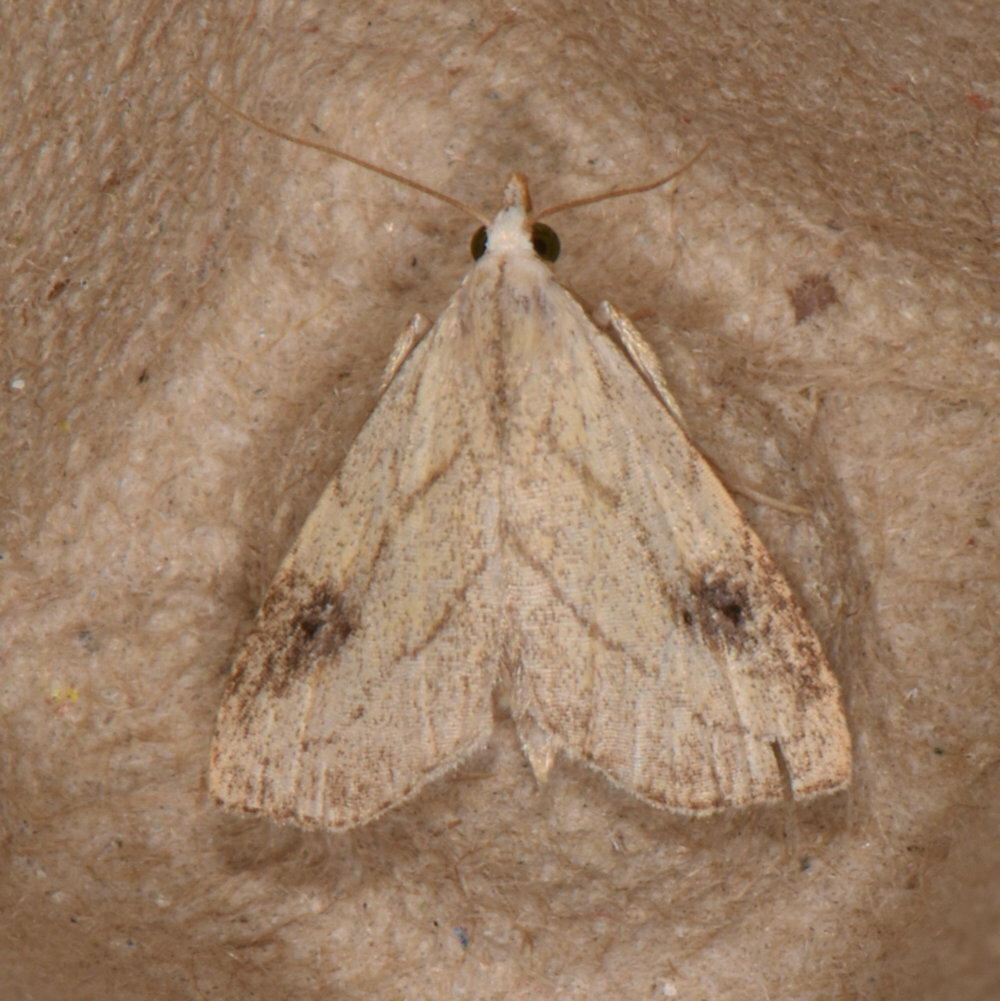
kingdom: Animalia
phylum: Arthropoda
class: Insecta
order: Lepidoptera
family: Erebidae
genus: Rivula
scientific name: Rivula propinqualis
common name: Spotted grass moth
